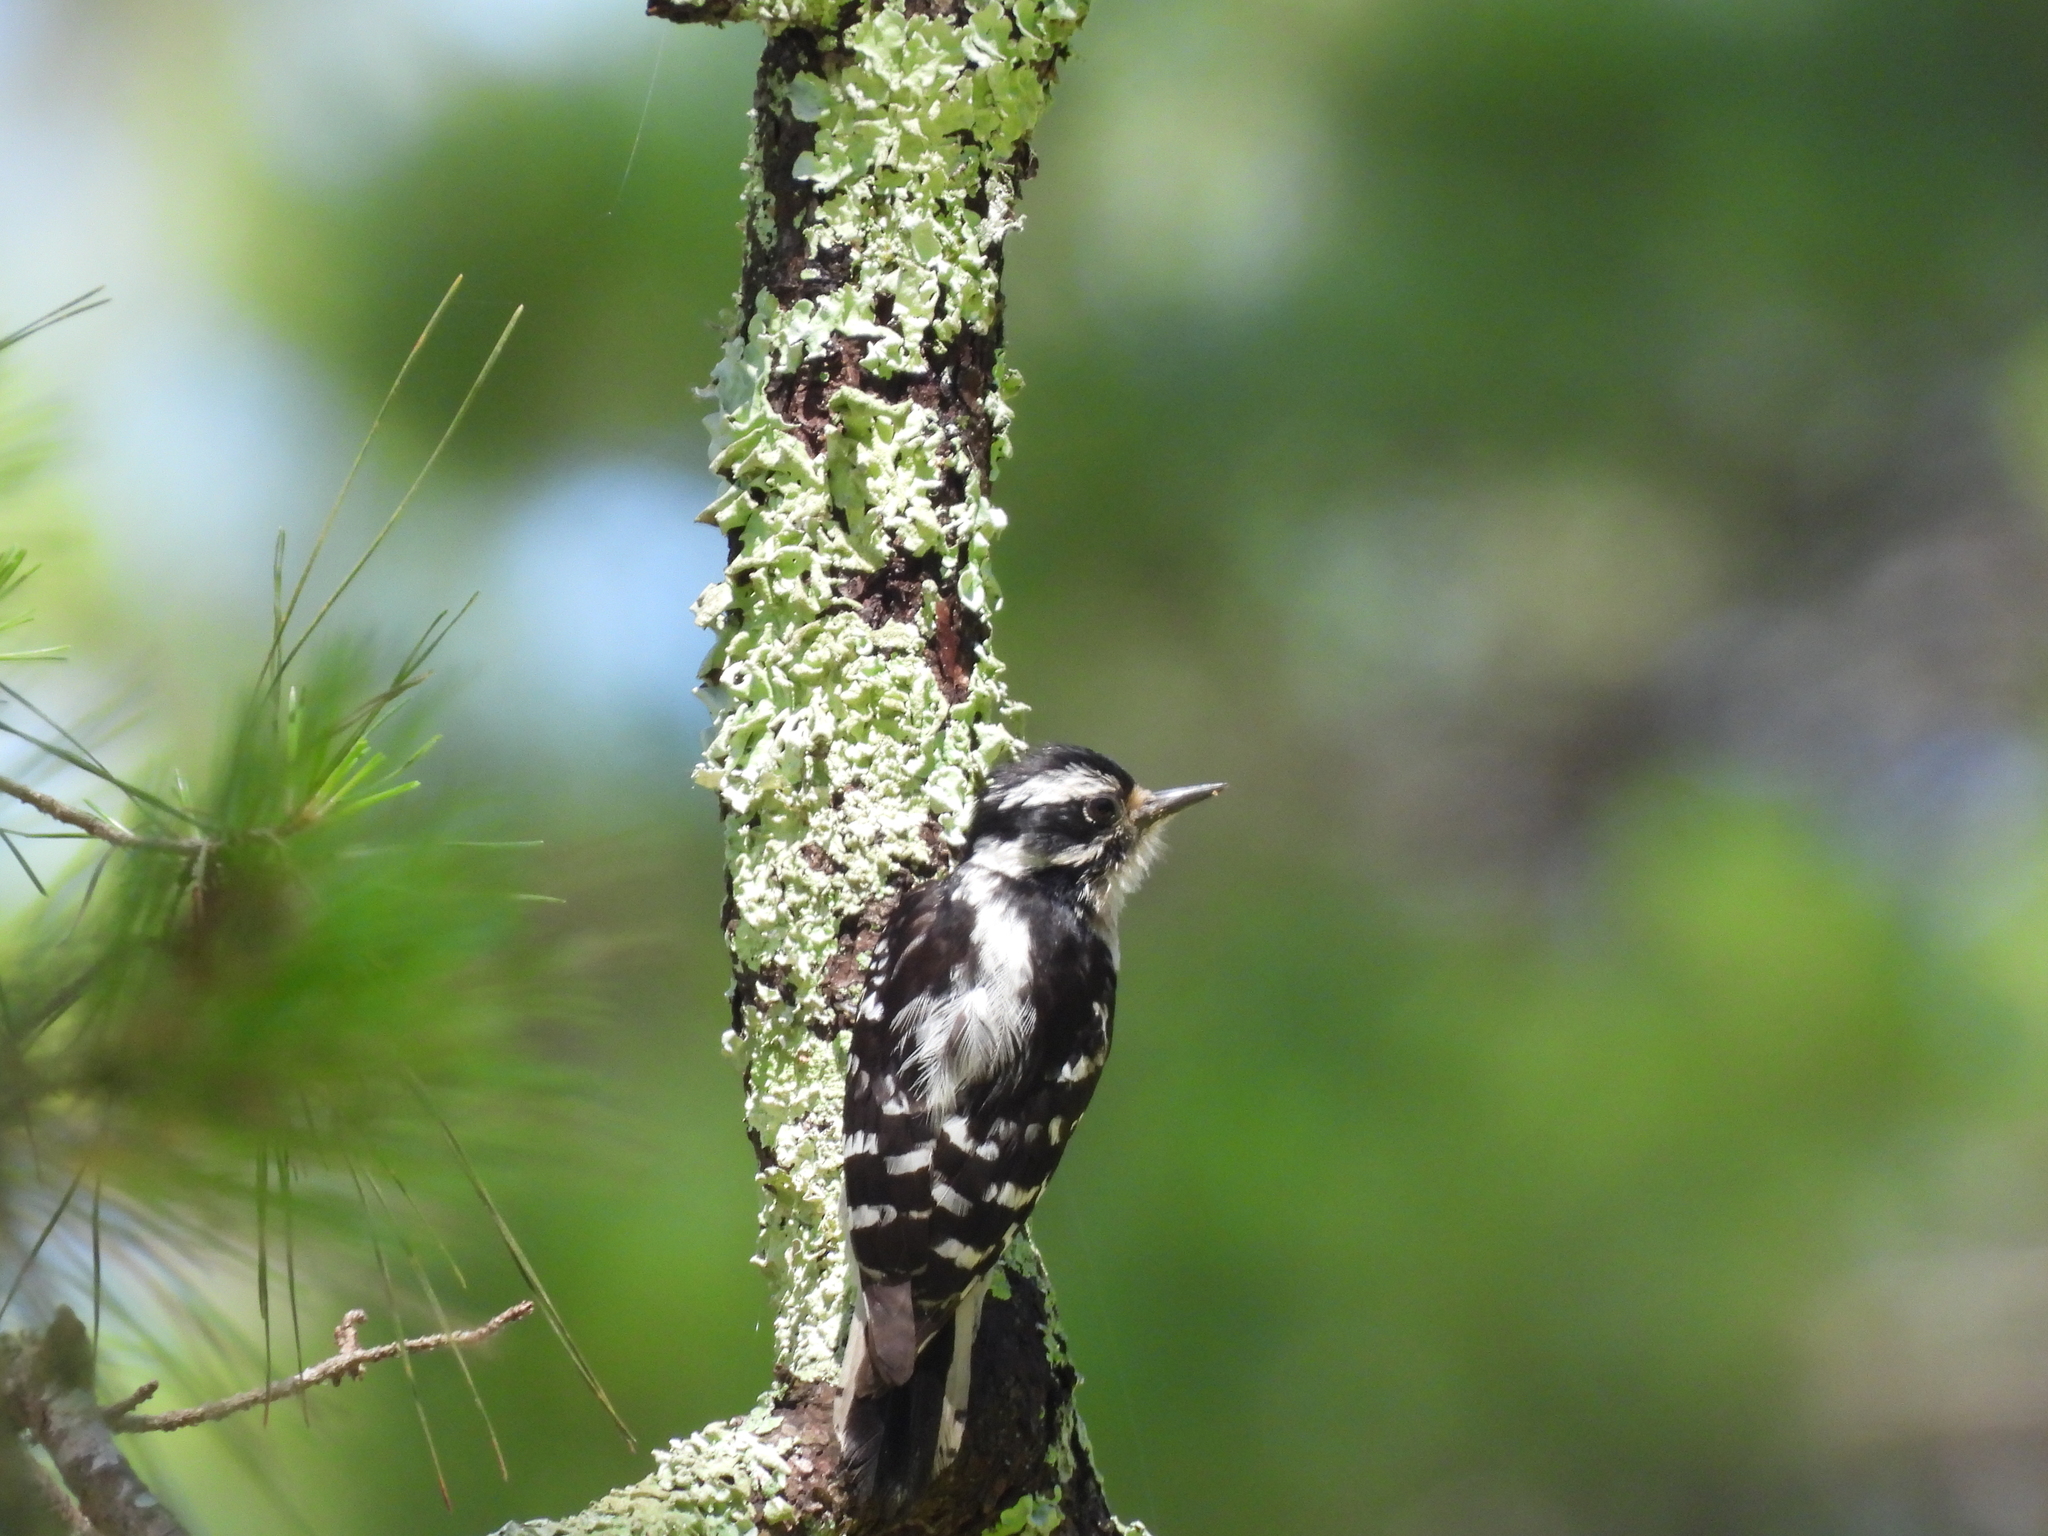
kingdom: Animalia
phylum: Chordata
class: Aves
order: Piciformes
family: Picidae
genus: Dryobates
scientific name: Dryobates pubescens
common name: Downy woodpecker
